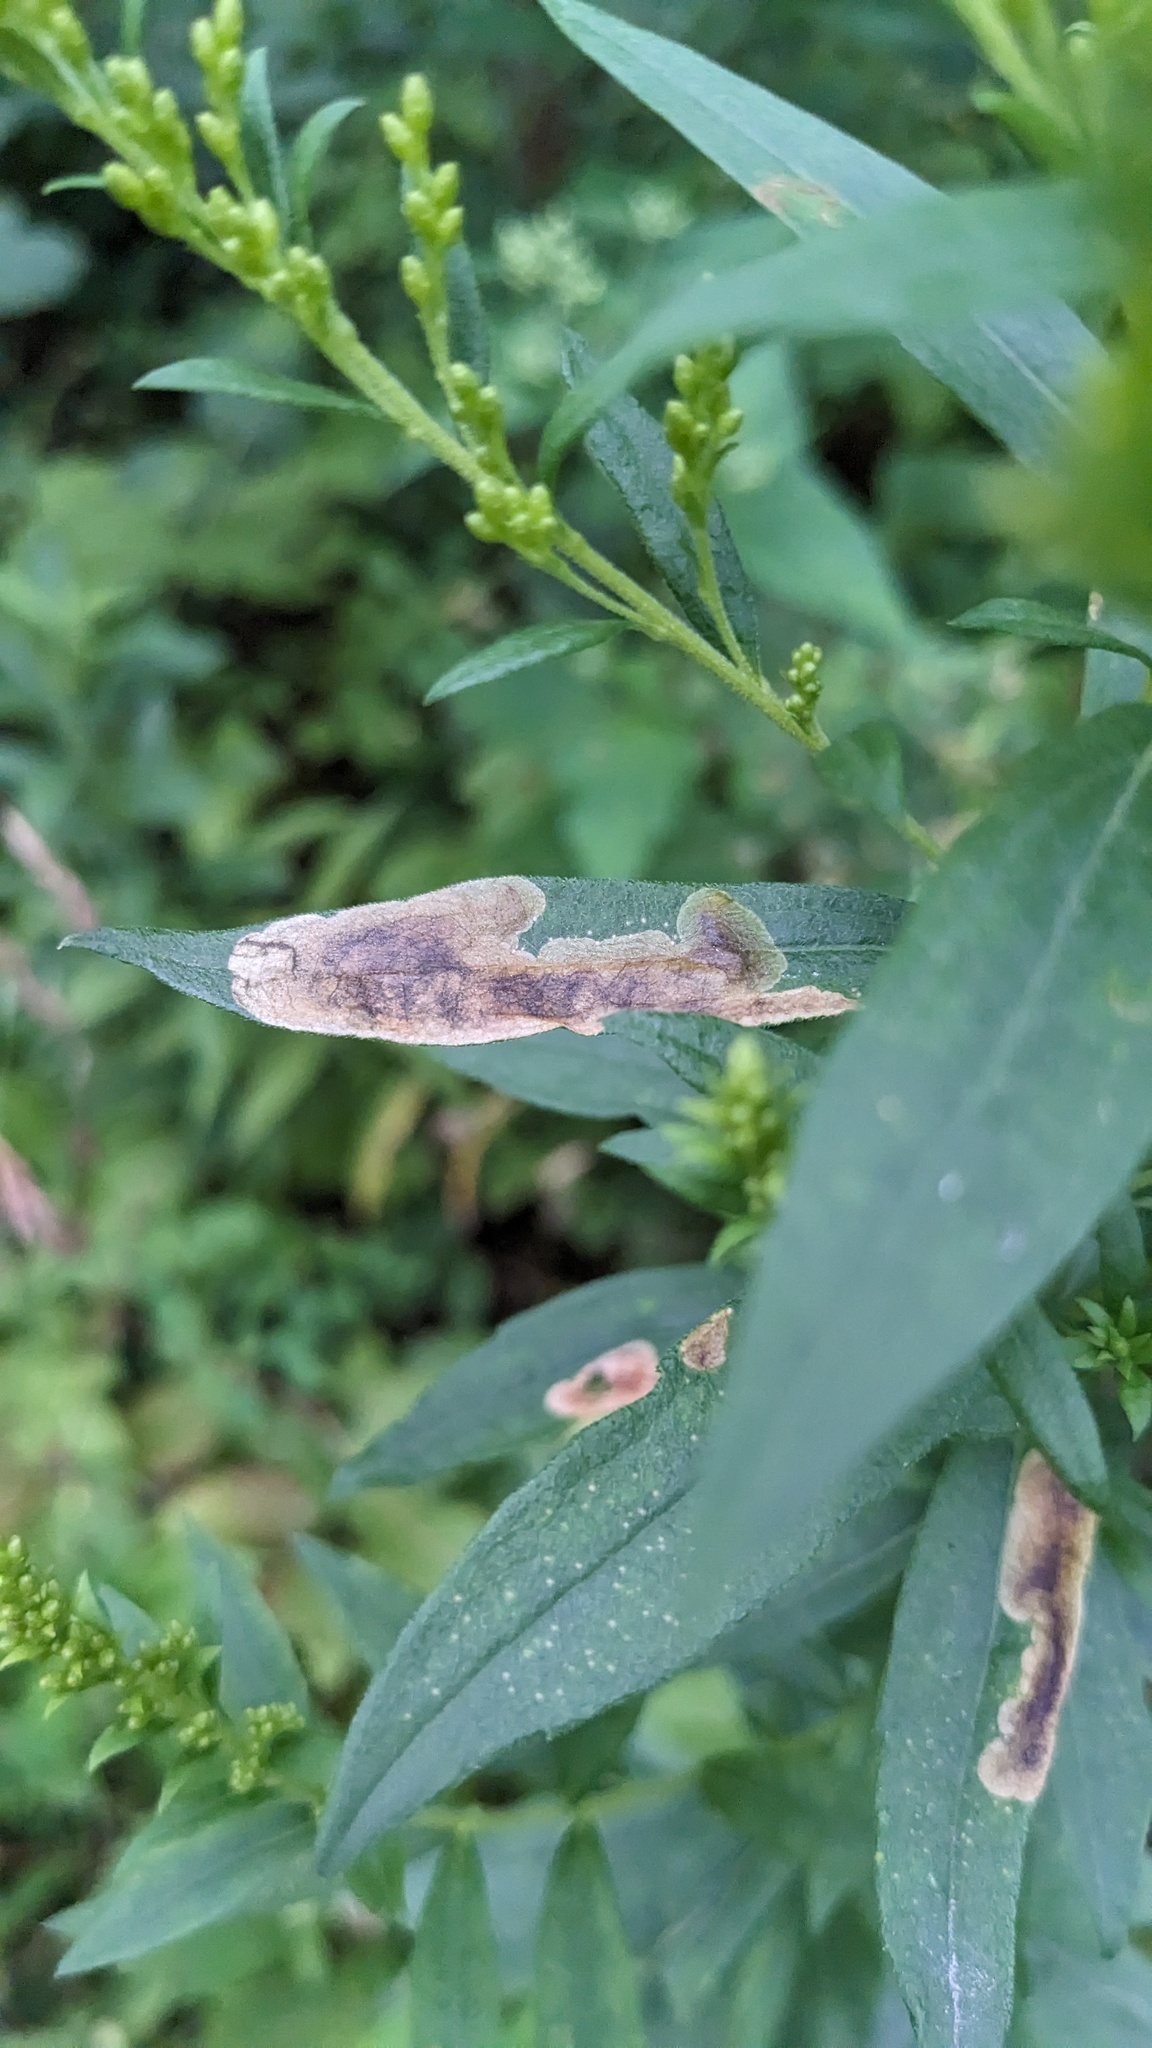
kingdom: Animalia
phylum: Arthropoda
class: Insecta
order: Diptera
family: Agromyzidae
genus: Nemorimyza
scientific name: Nemorimyza posticata
